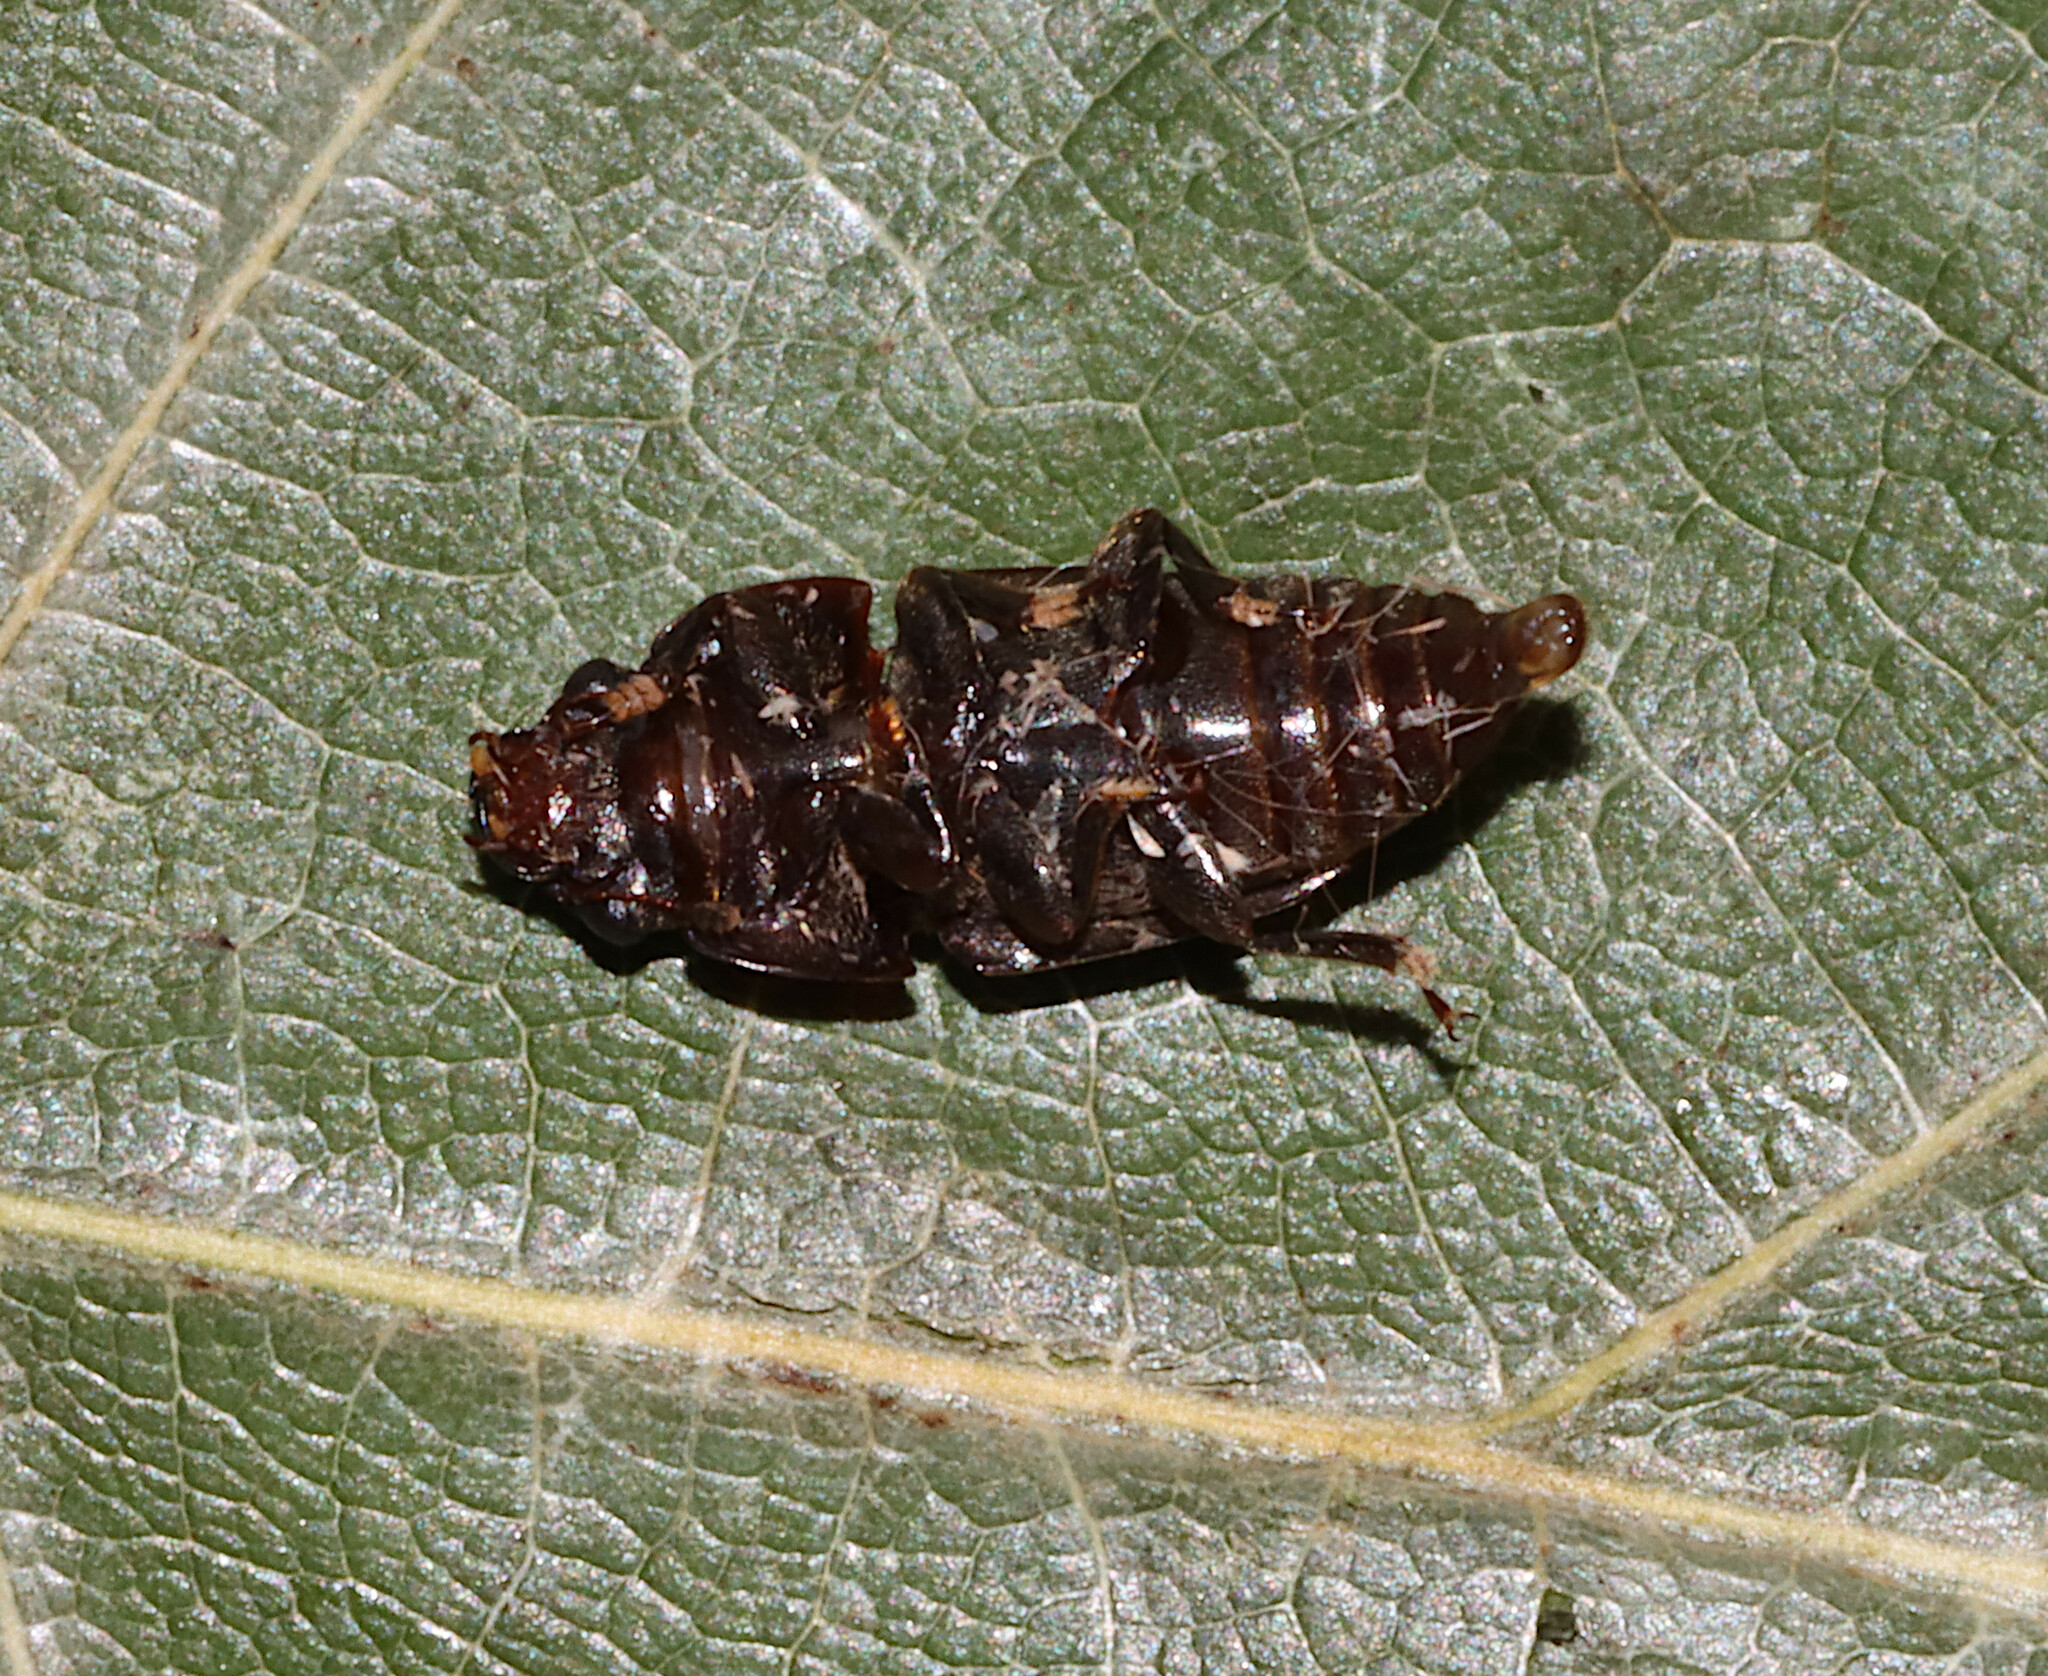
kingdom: Animalia
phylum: Arthropoda
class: Insecta
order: Coleoptera
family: Nitidulidae
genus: Cryptarcha
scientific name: Cryptarcha ampla
